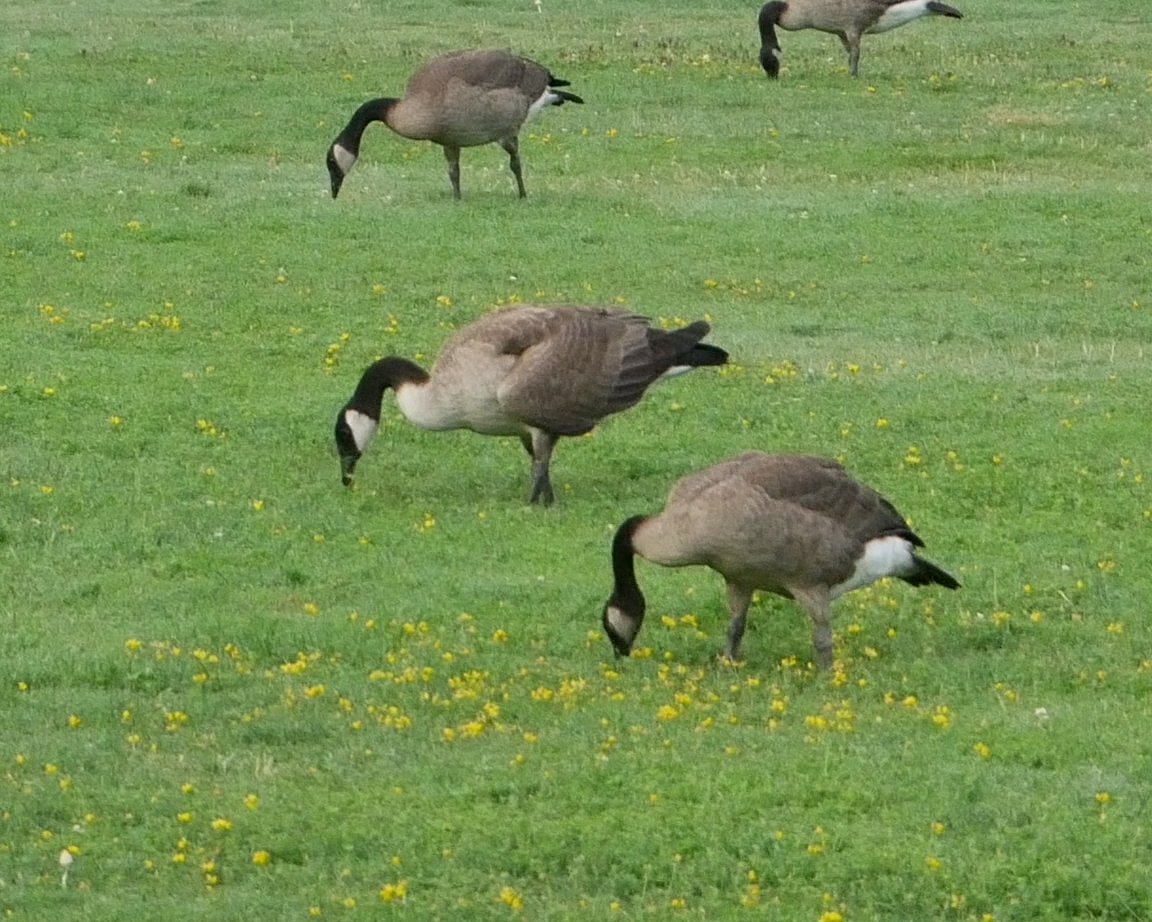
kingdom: Animalia
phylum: Chordata
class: Aves
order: Anseriformes
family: Anatidae
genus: Branta
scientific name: Branta canadensis
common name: Canada goose
